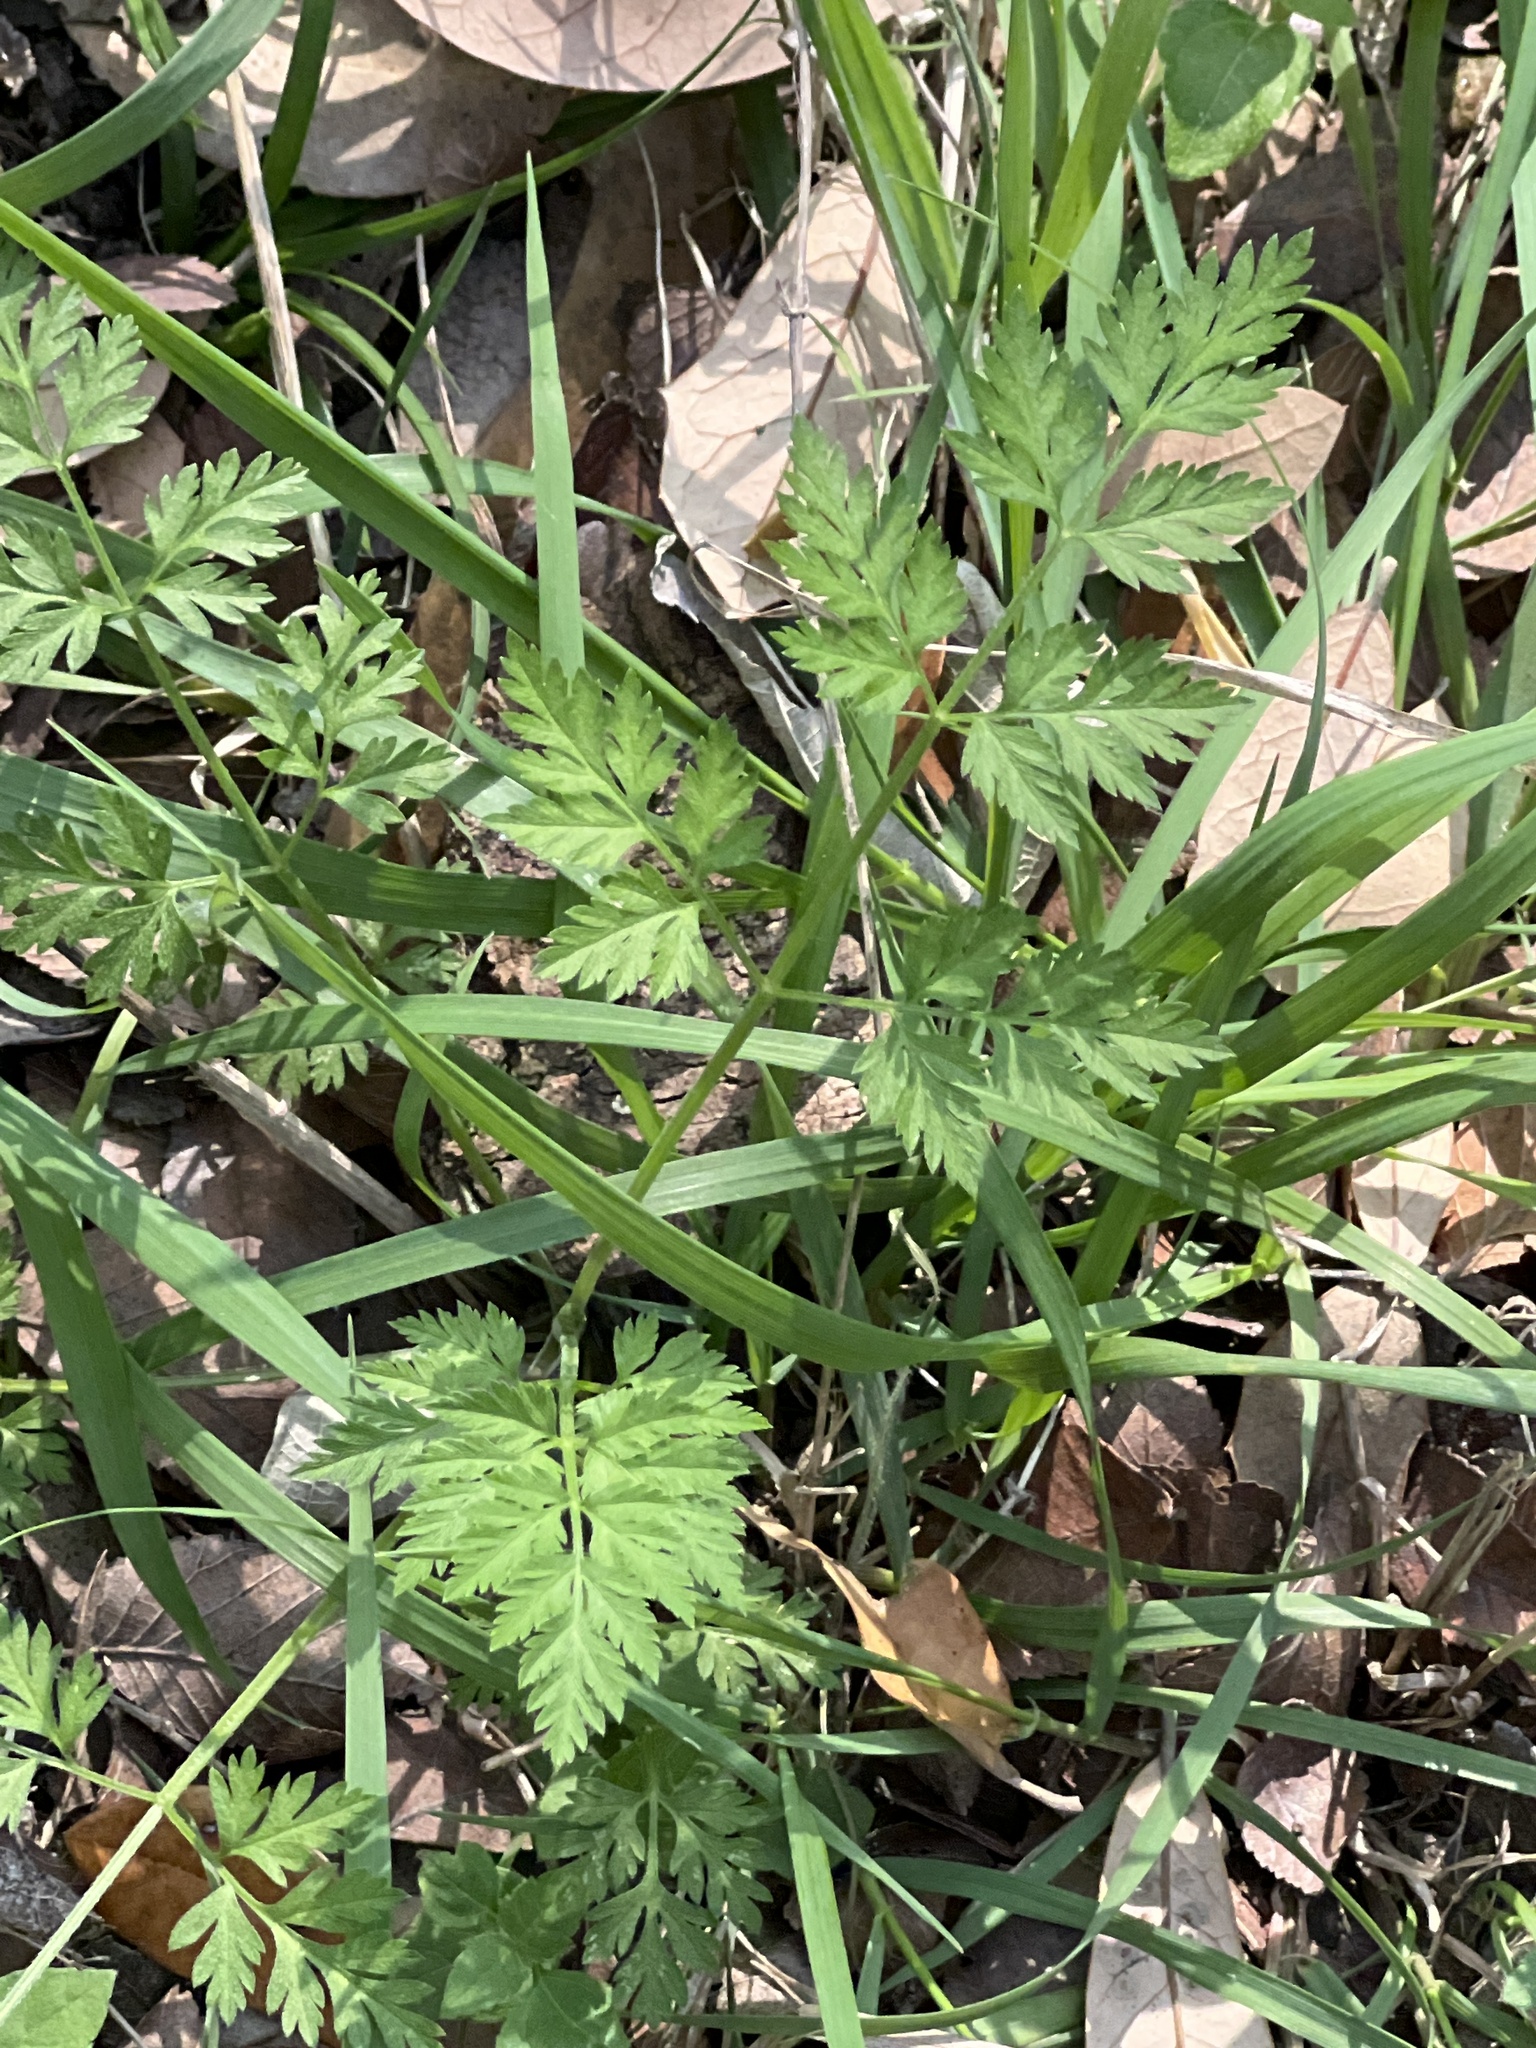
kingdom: Plantae
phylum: Tracheophyta
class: Magnoliopsida
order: Apiales
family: Apiaceae
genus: Torilis
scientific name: Torilis arvensis
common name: Spreading hedge-parsley
